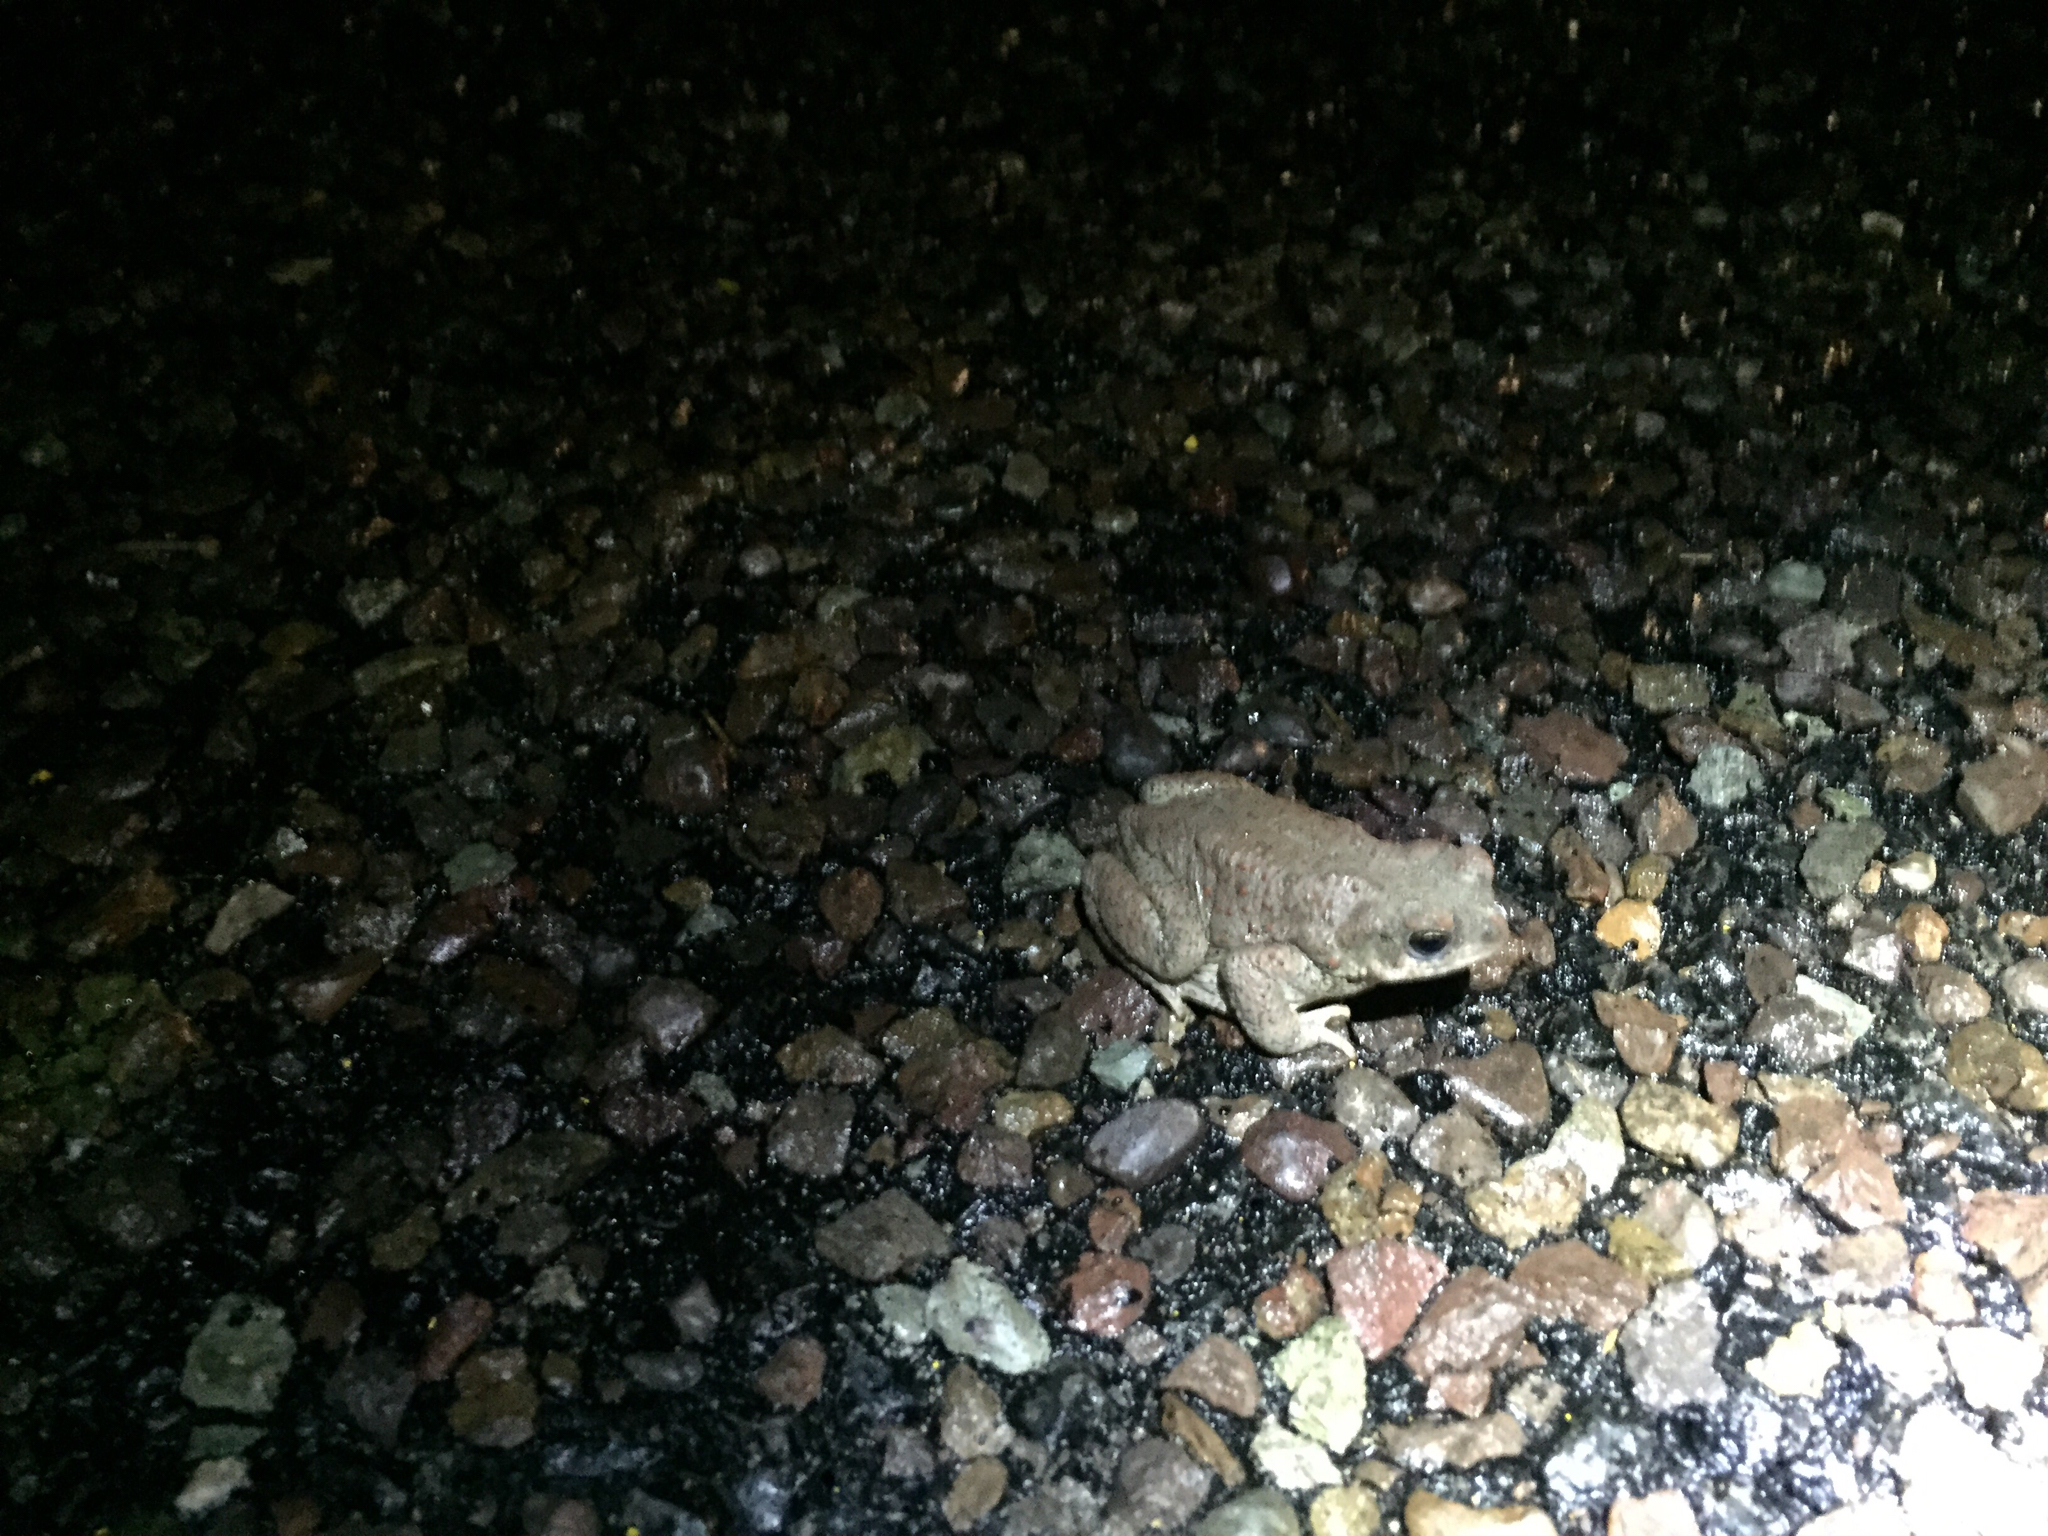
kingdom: Animalia
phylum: Chordata
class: Amphibia
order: Anura
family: Bufonidae
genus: Anaxyrus
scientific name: Anaxyrus punctatus
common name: Red-spotted toad
